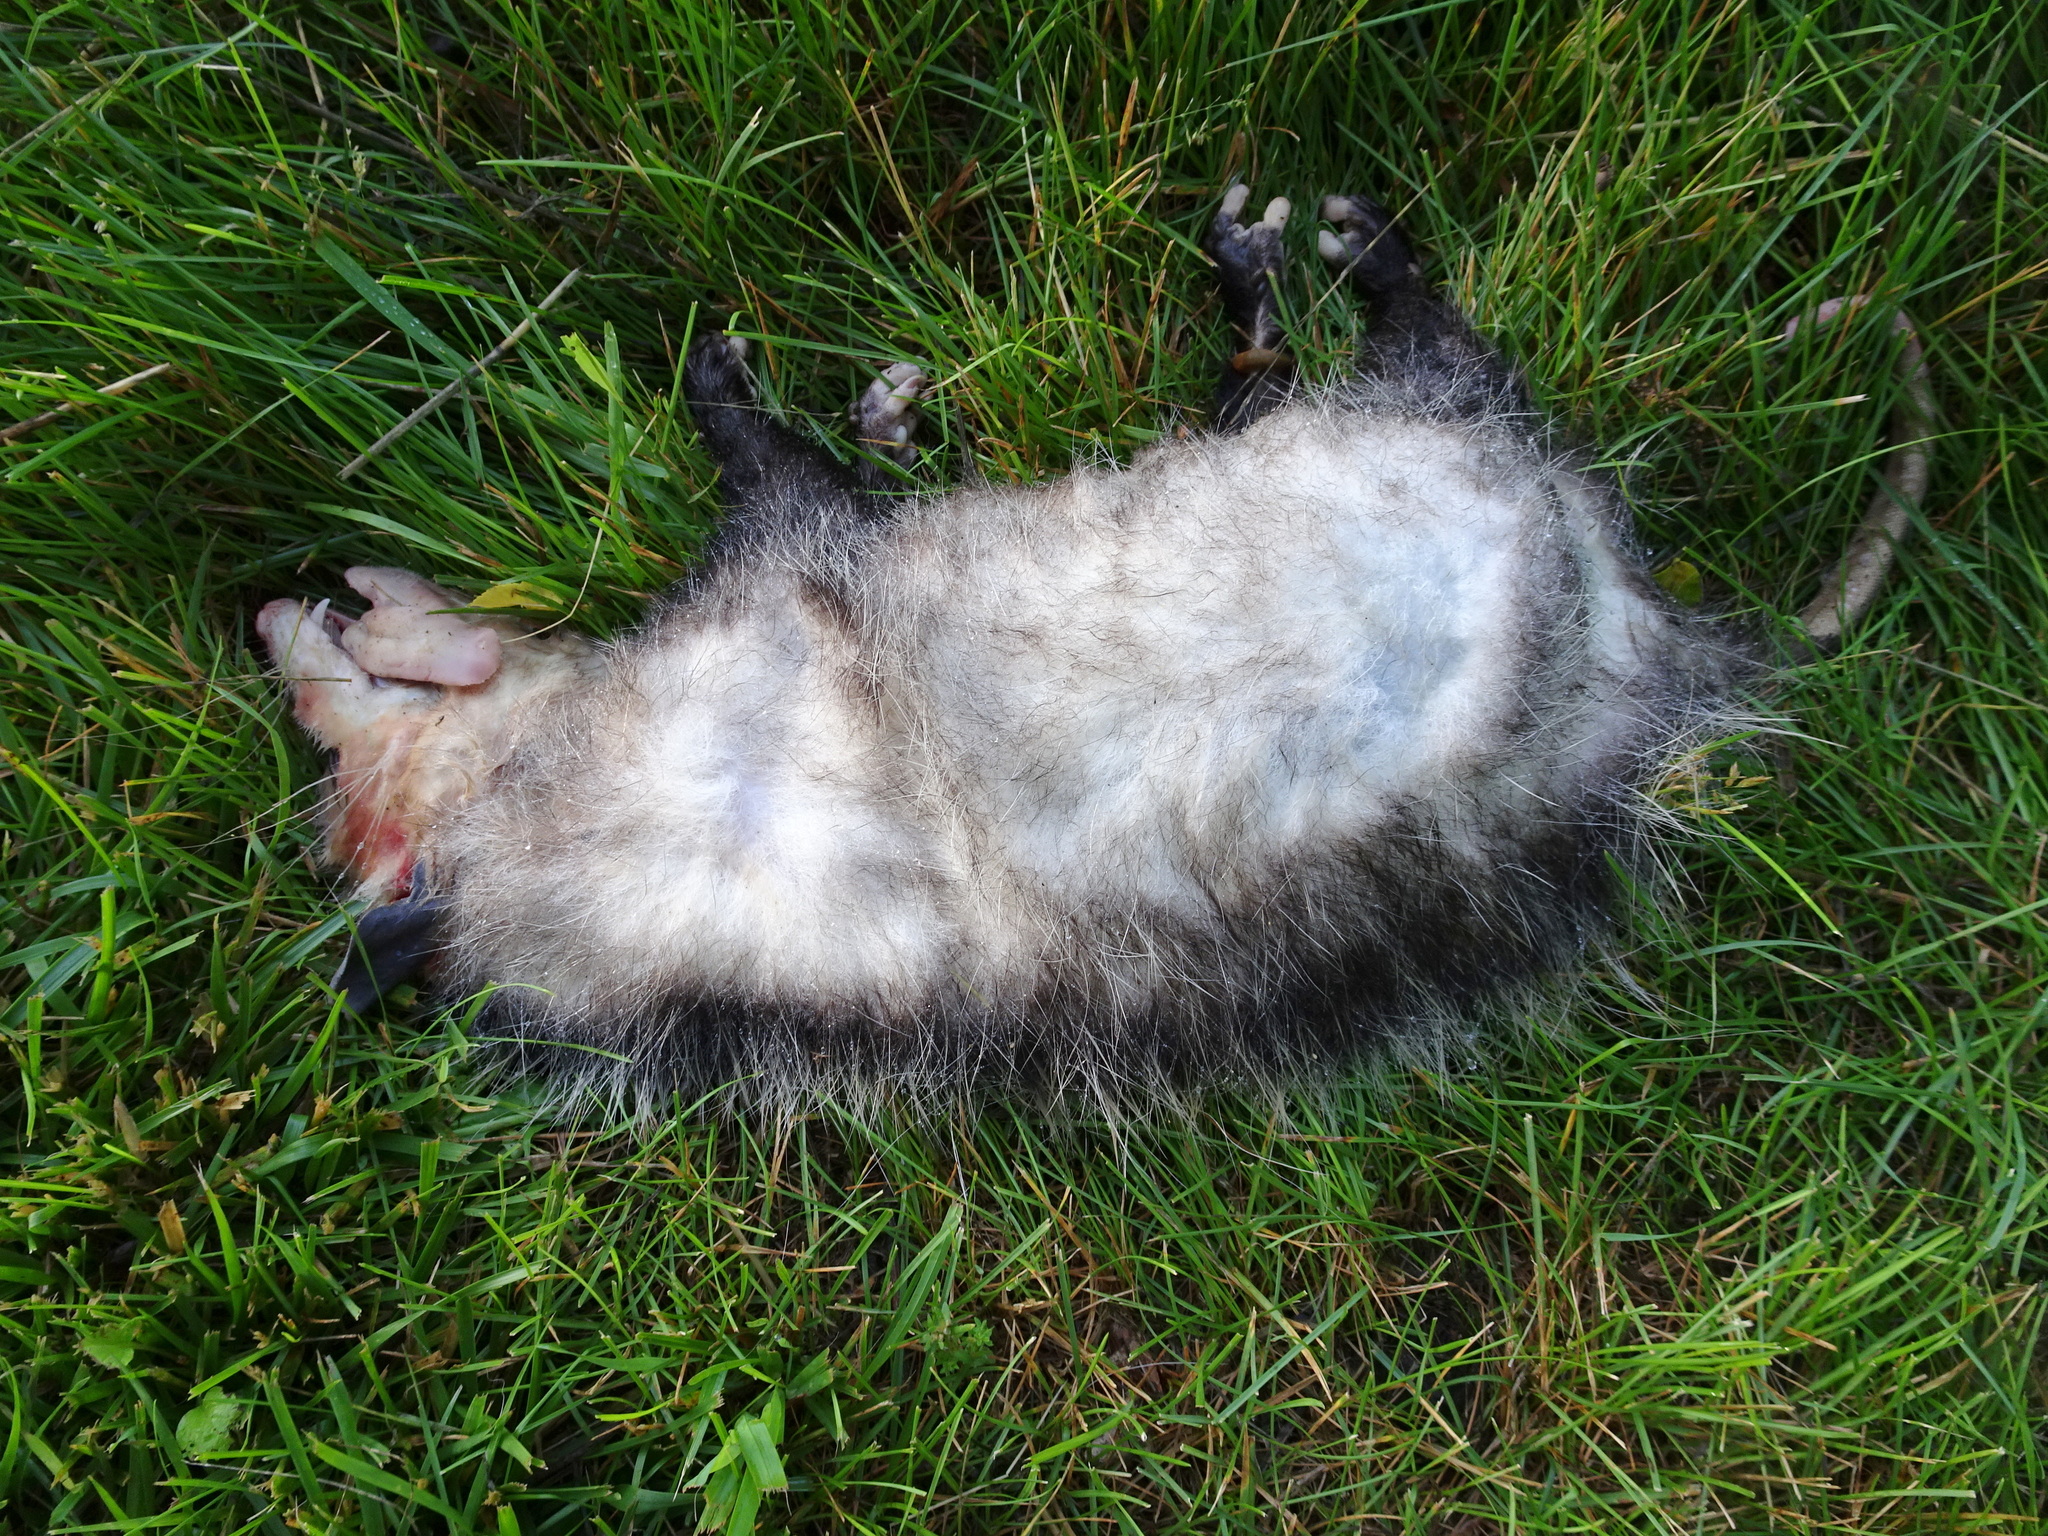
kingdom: Animalia
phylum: Chordata
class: Mammalia
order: Didelphimorphia
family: Didelphidae
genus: Didelphis
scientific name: Didelphis virginiana
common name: Virginia opossum
